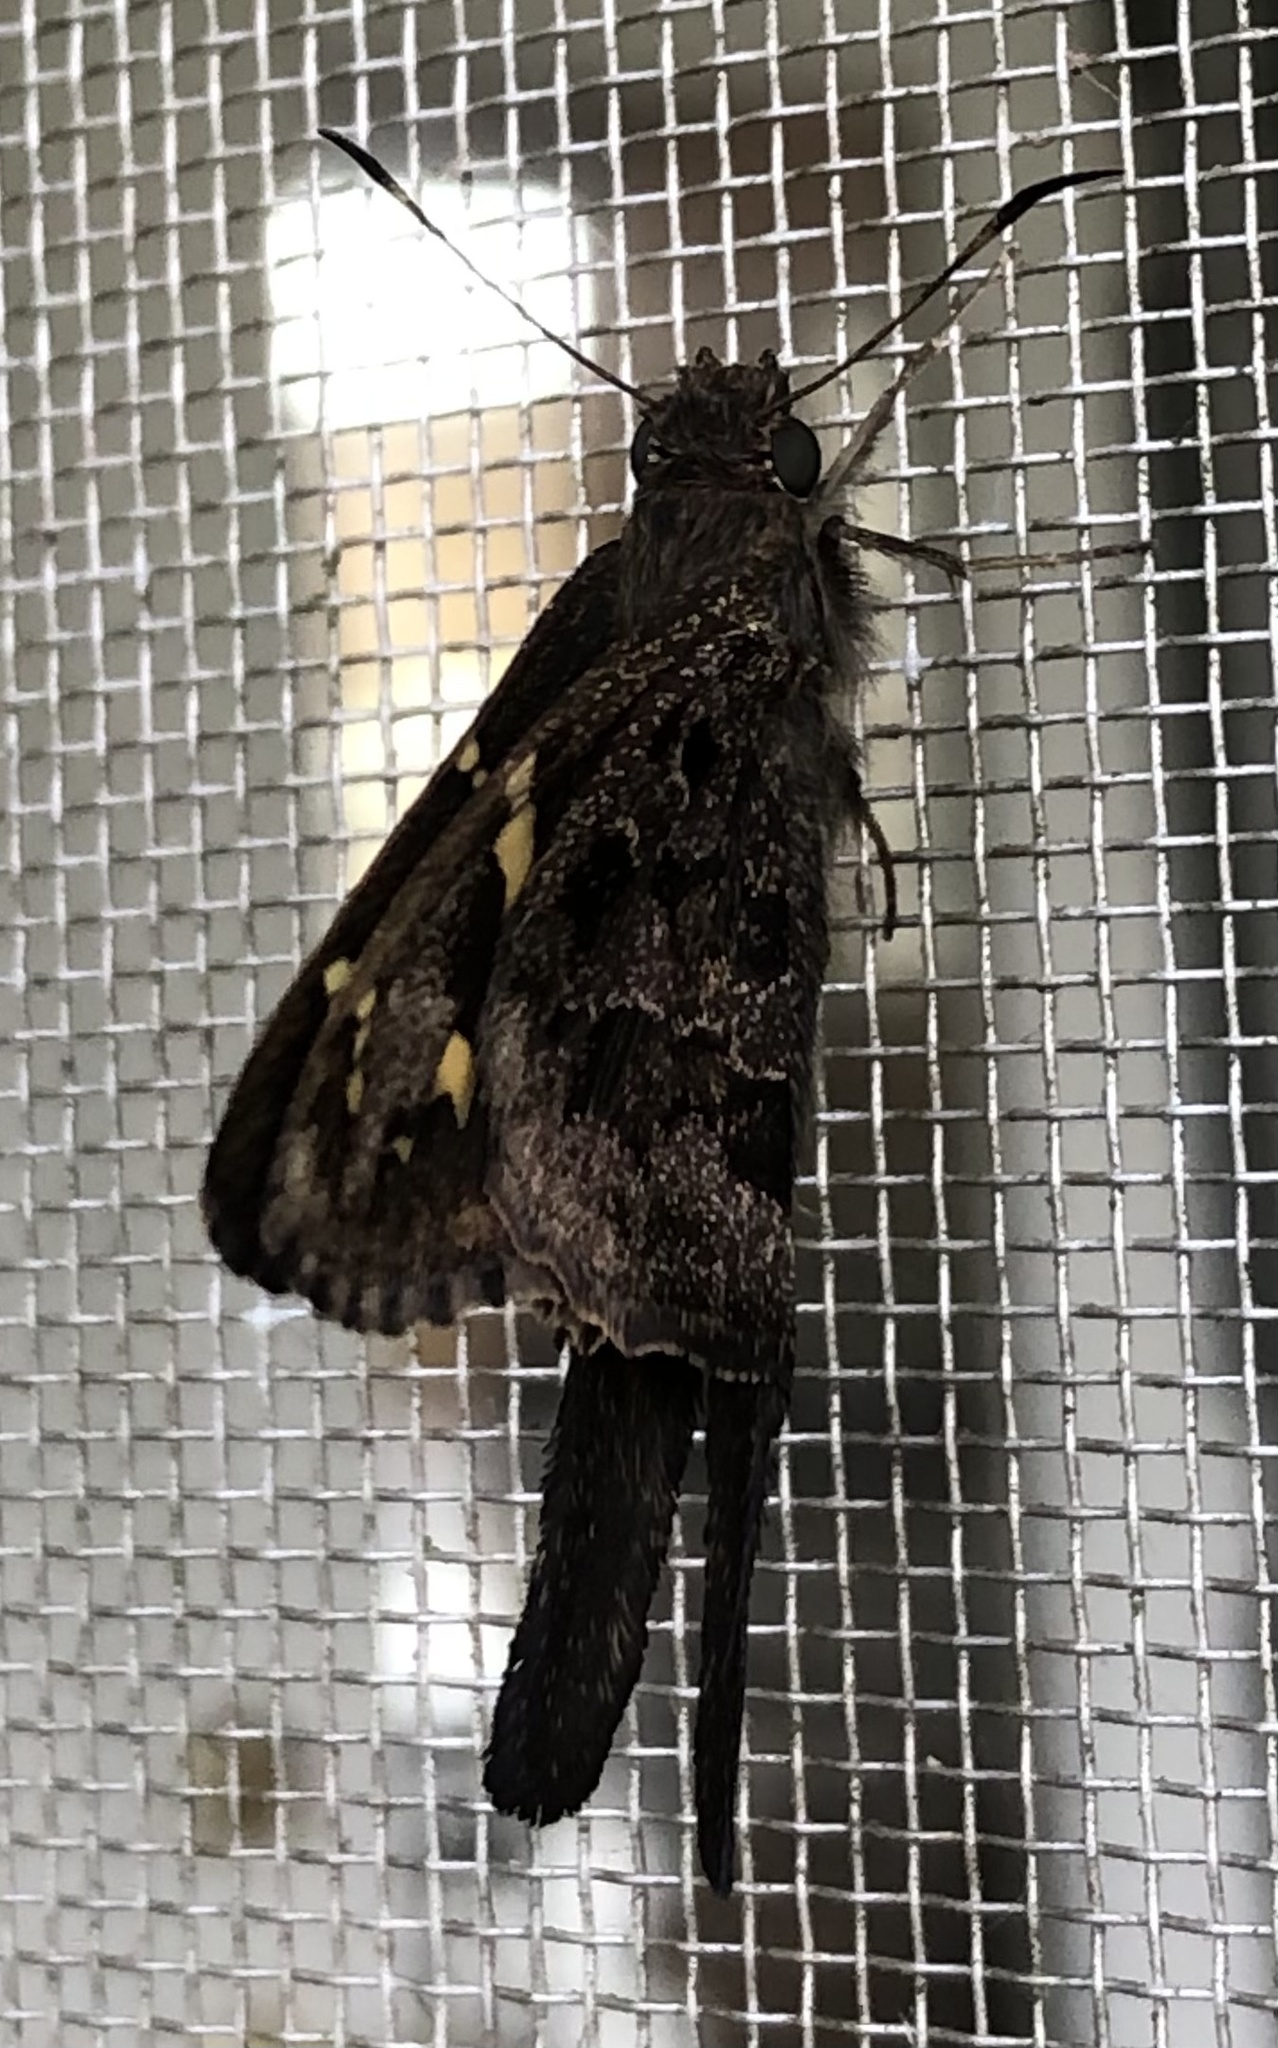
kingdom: Animalia
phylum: Arthropoda
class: Insecta
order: Lepidoptera
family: Hesperiidae
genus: Thorybes
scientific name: Thorybes
